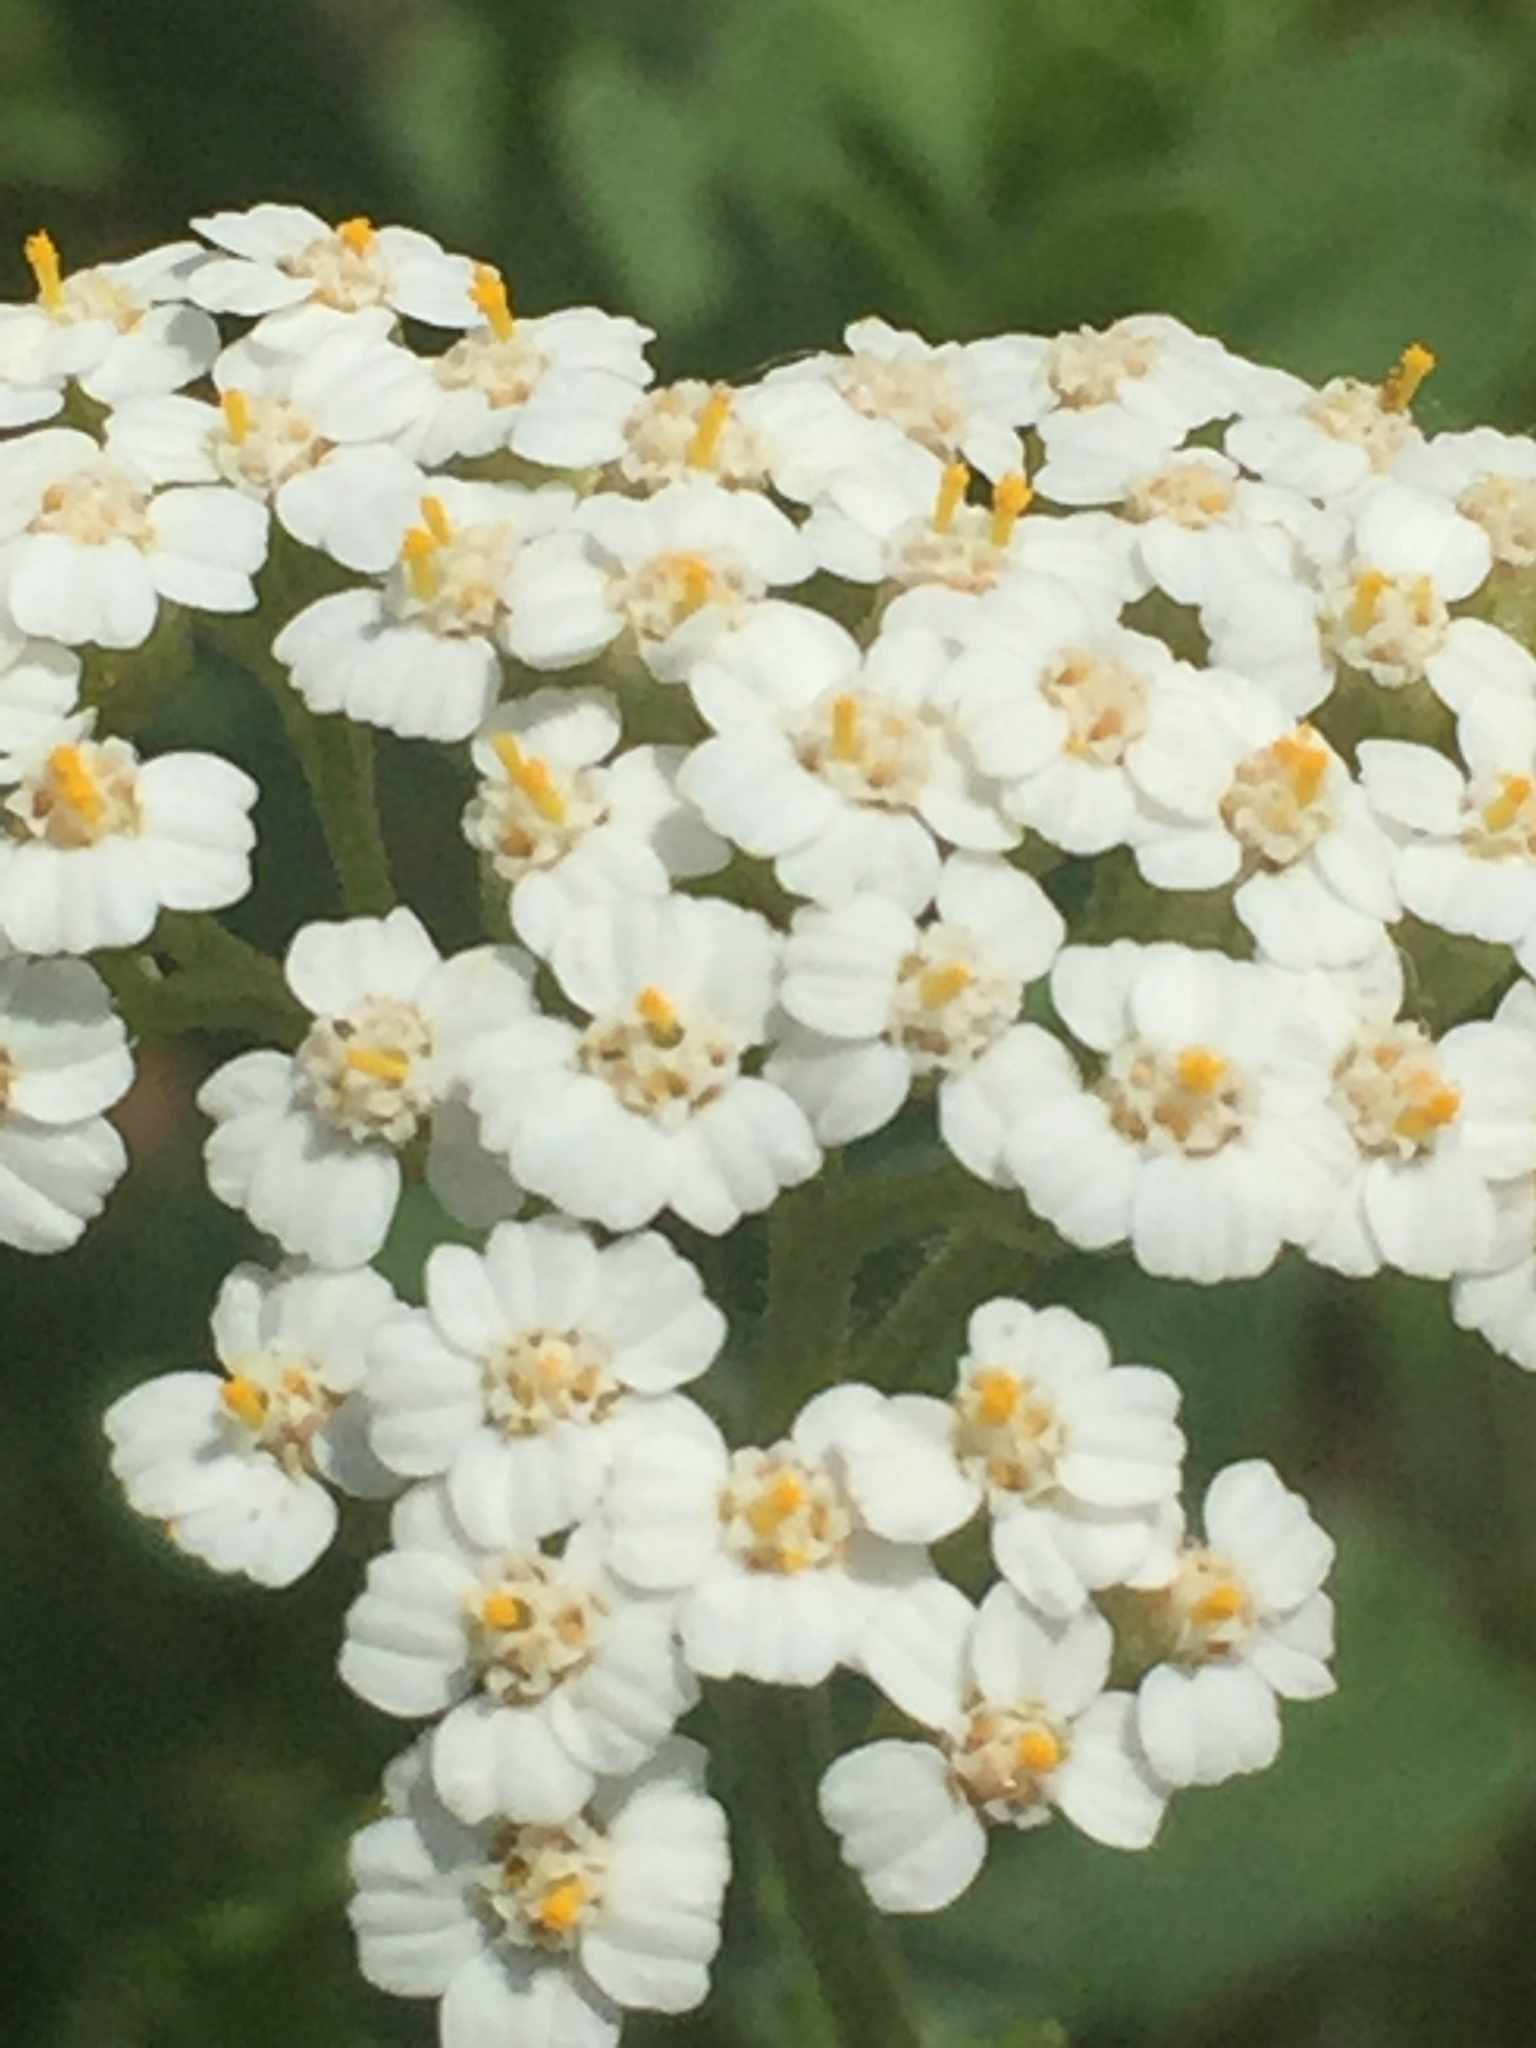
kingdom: Plantae
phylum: Tracheophyta
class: Magnoliopsida
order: Asterales
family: Asteraceae
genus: Achillea
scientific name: Achillea millefolium
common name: Yarrow
